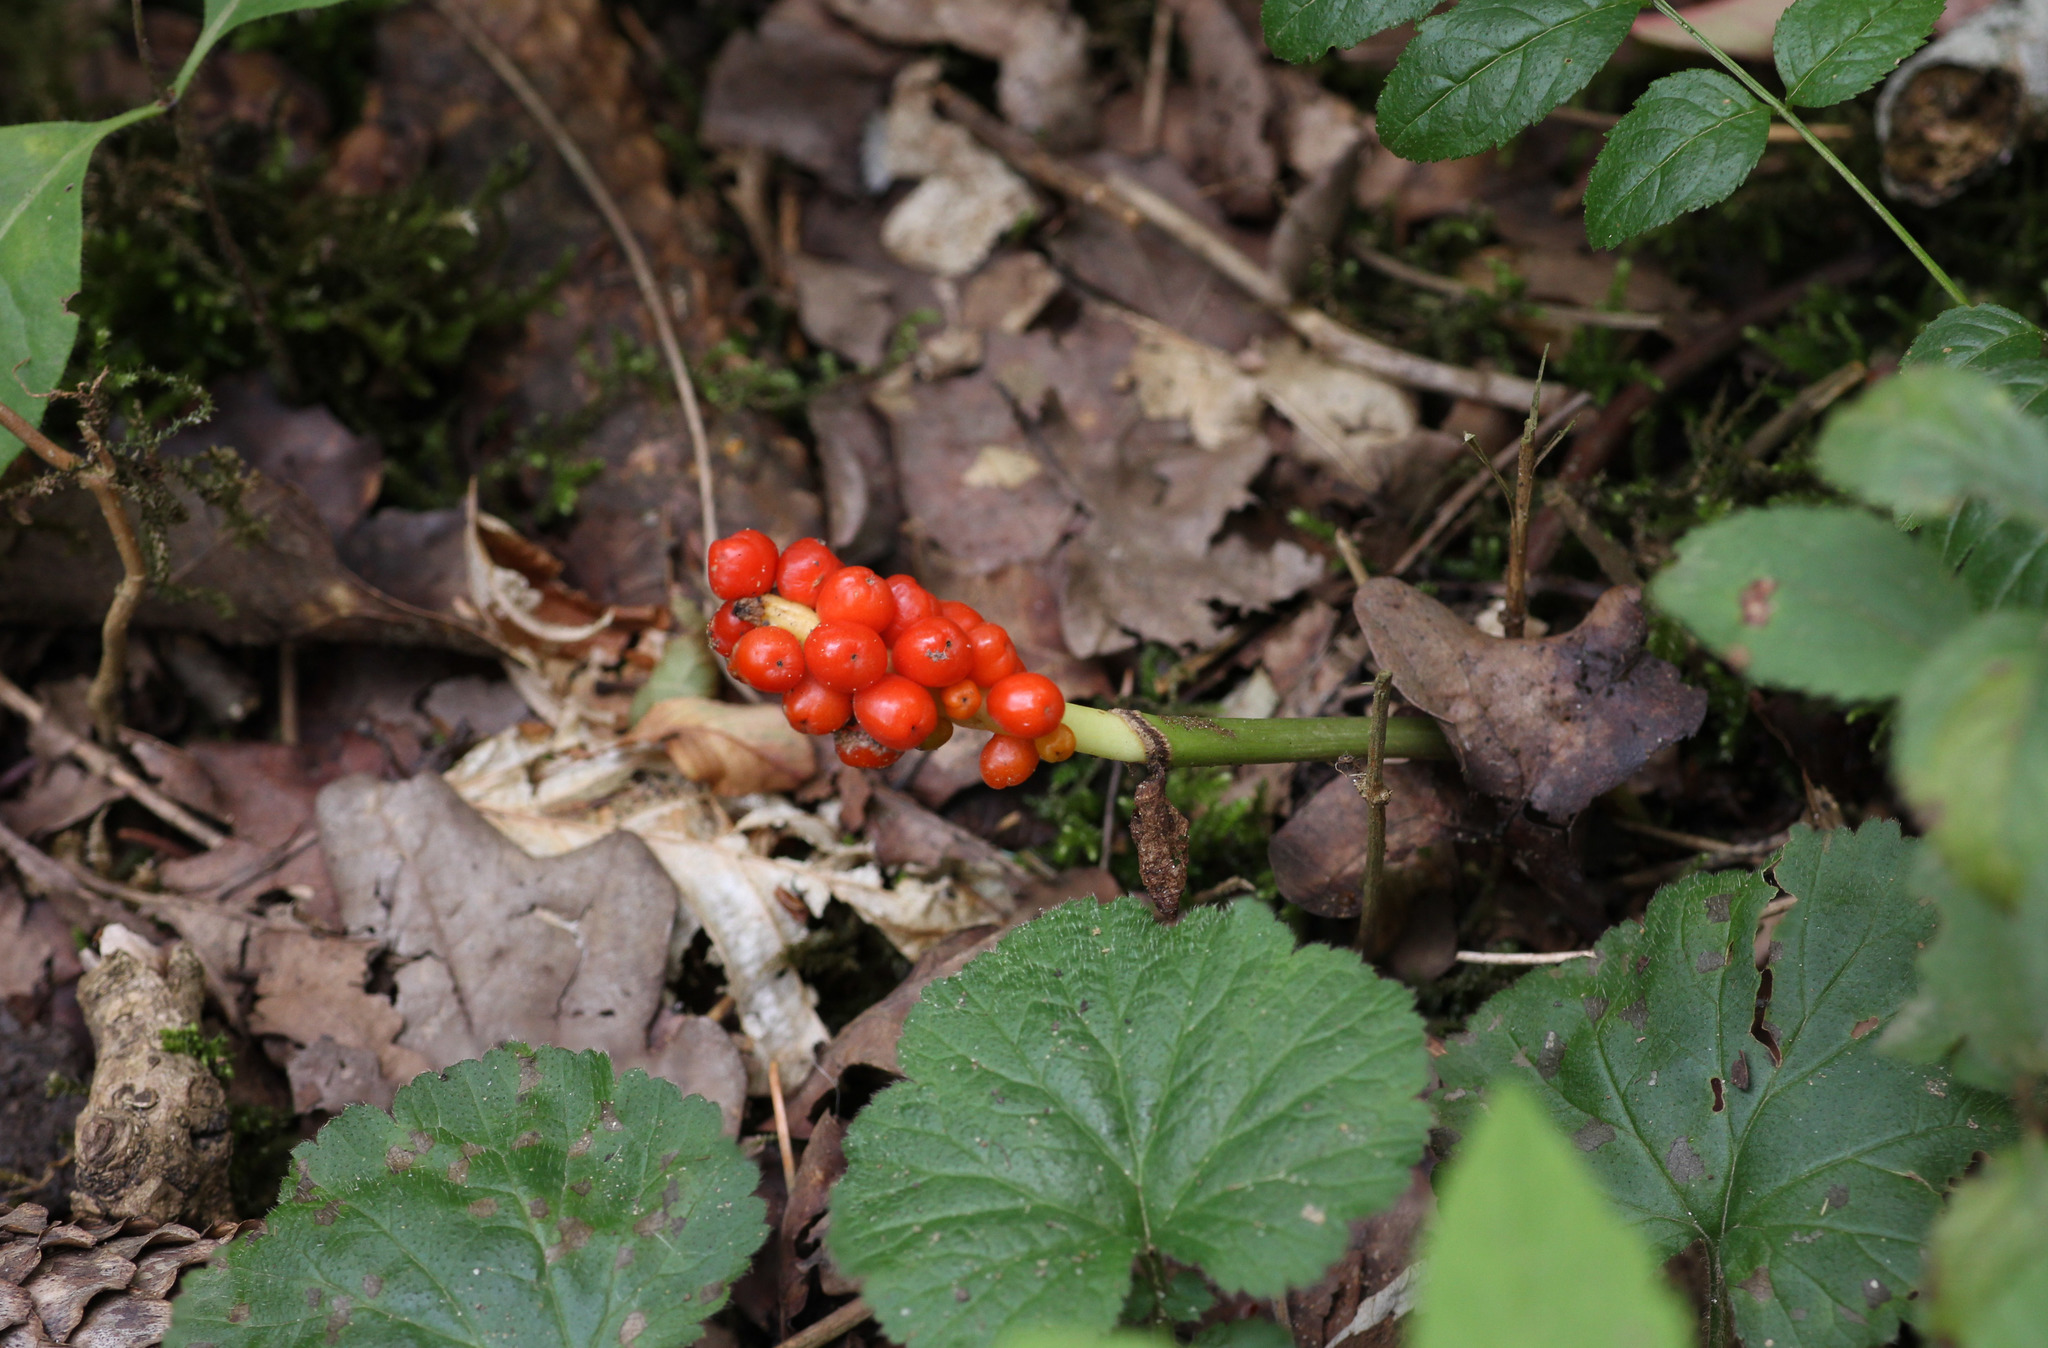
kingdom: Plantae
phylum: Tracheophyta
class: Liliopsida
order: Alismatales
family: Araceae
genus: Arum
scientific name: Arum maculatum
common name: Lords-and-ladies
